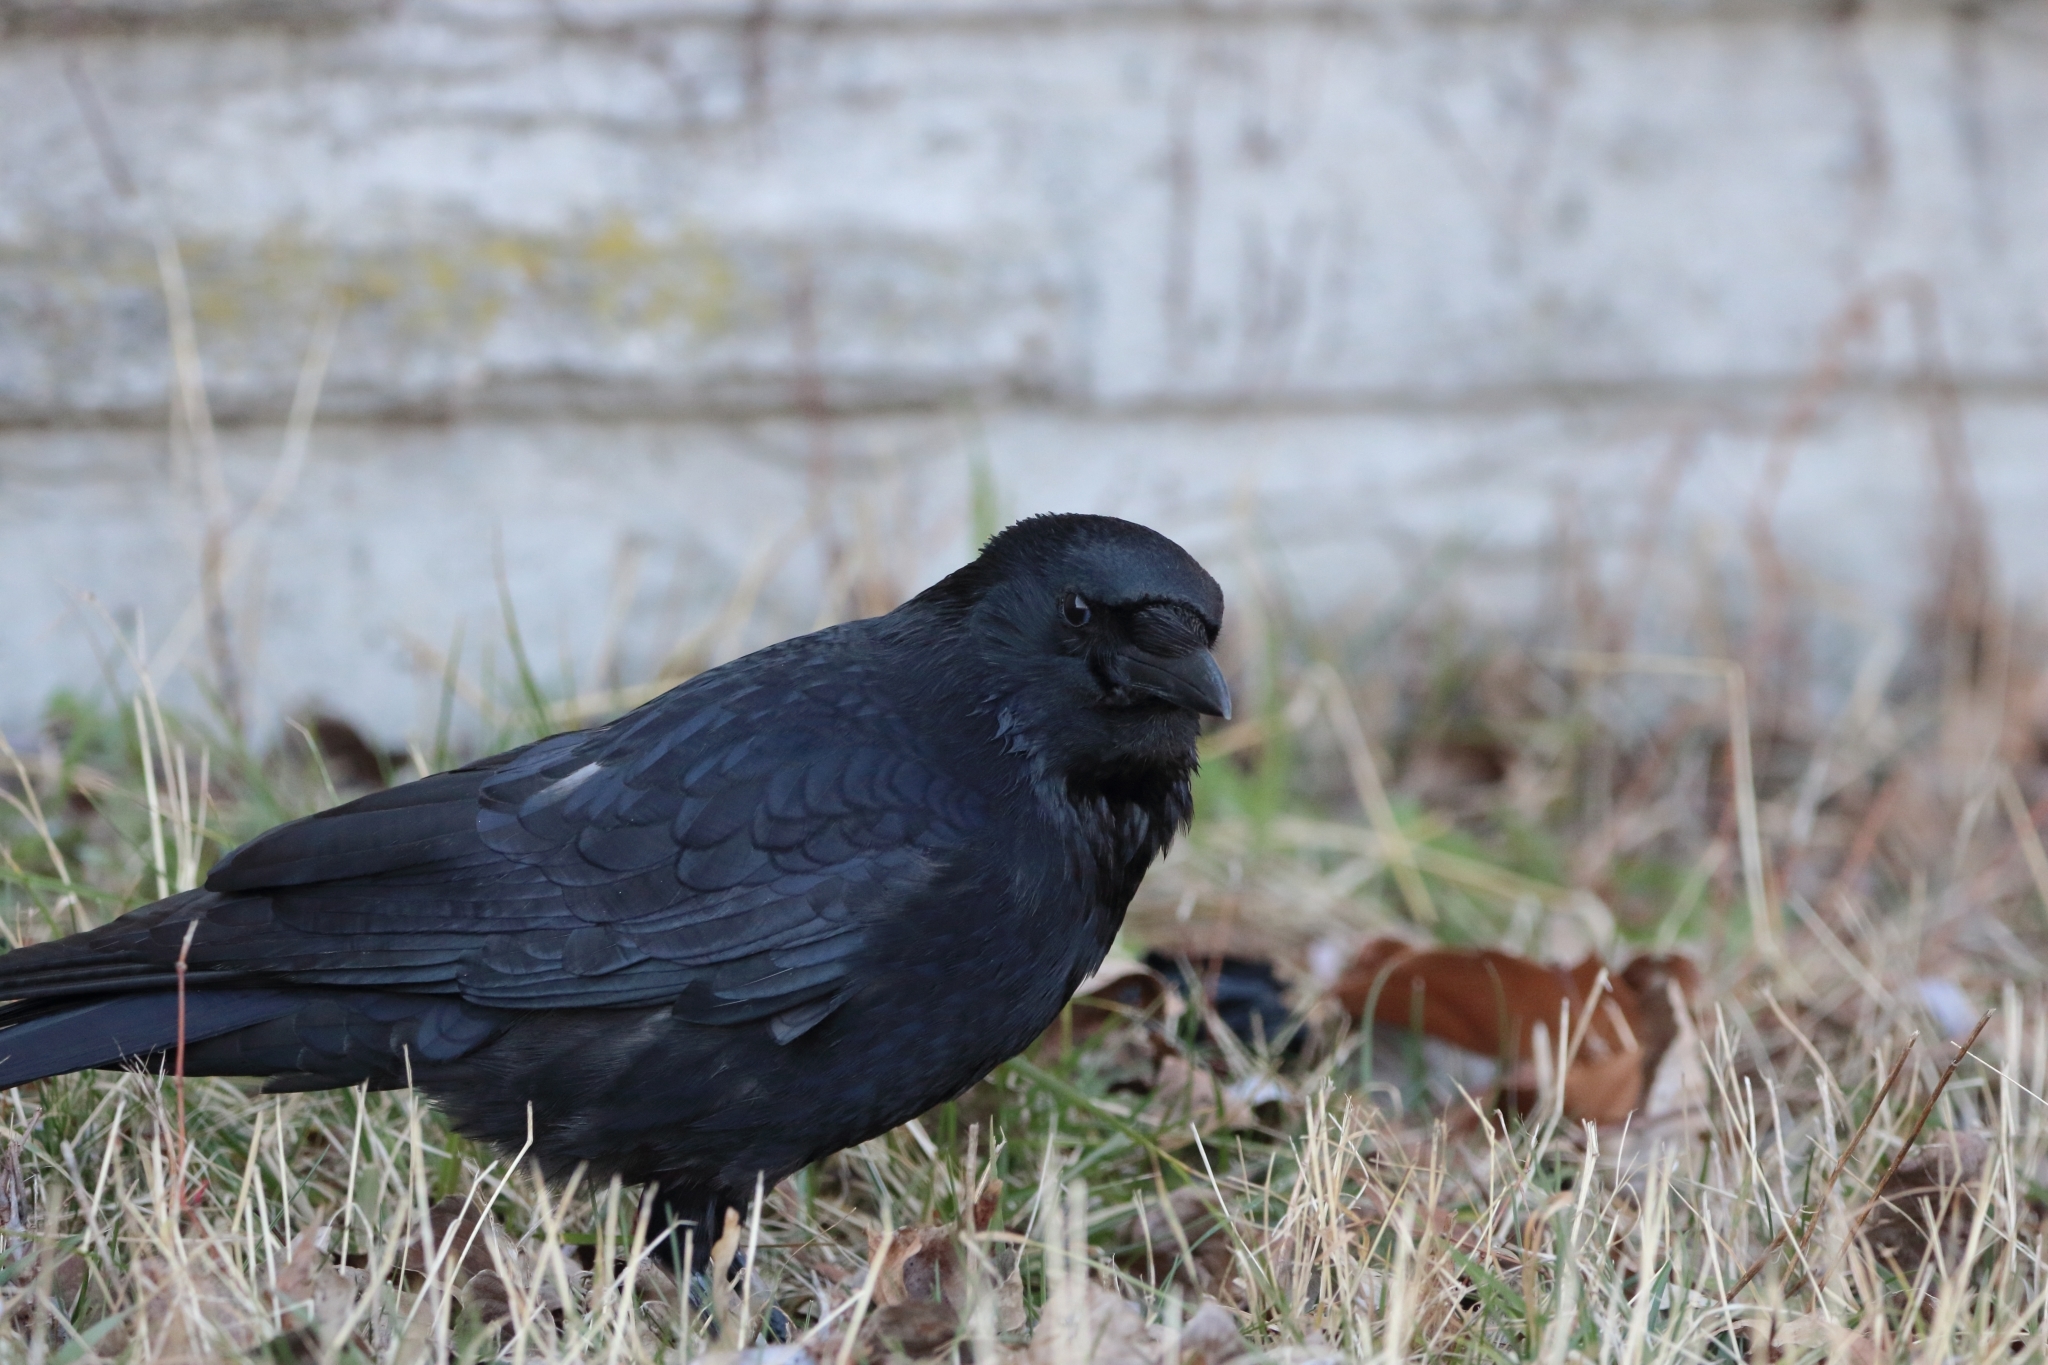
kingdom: Animalia
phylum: Chordata
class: Aves
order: Passeriformes
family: Corvidae
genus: Corvus
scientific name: Corvus corone
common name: Carrion crow
